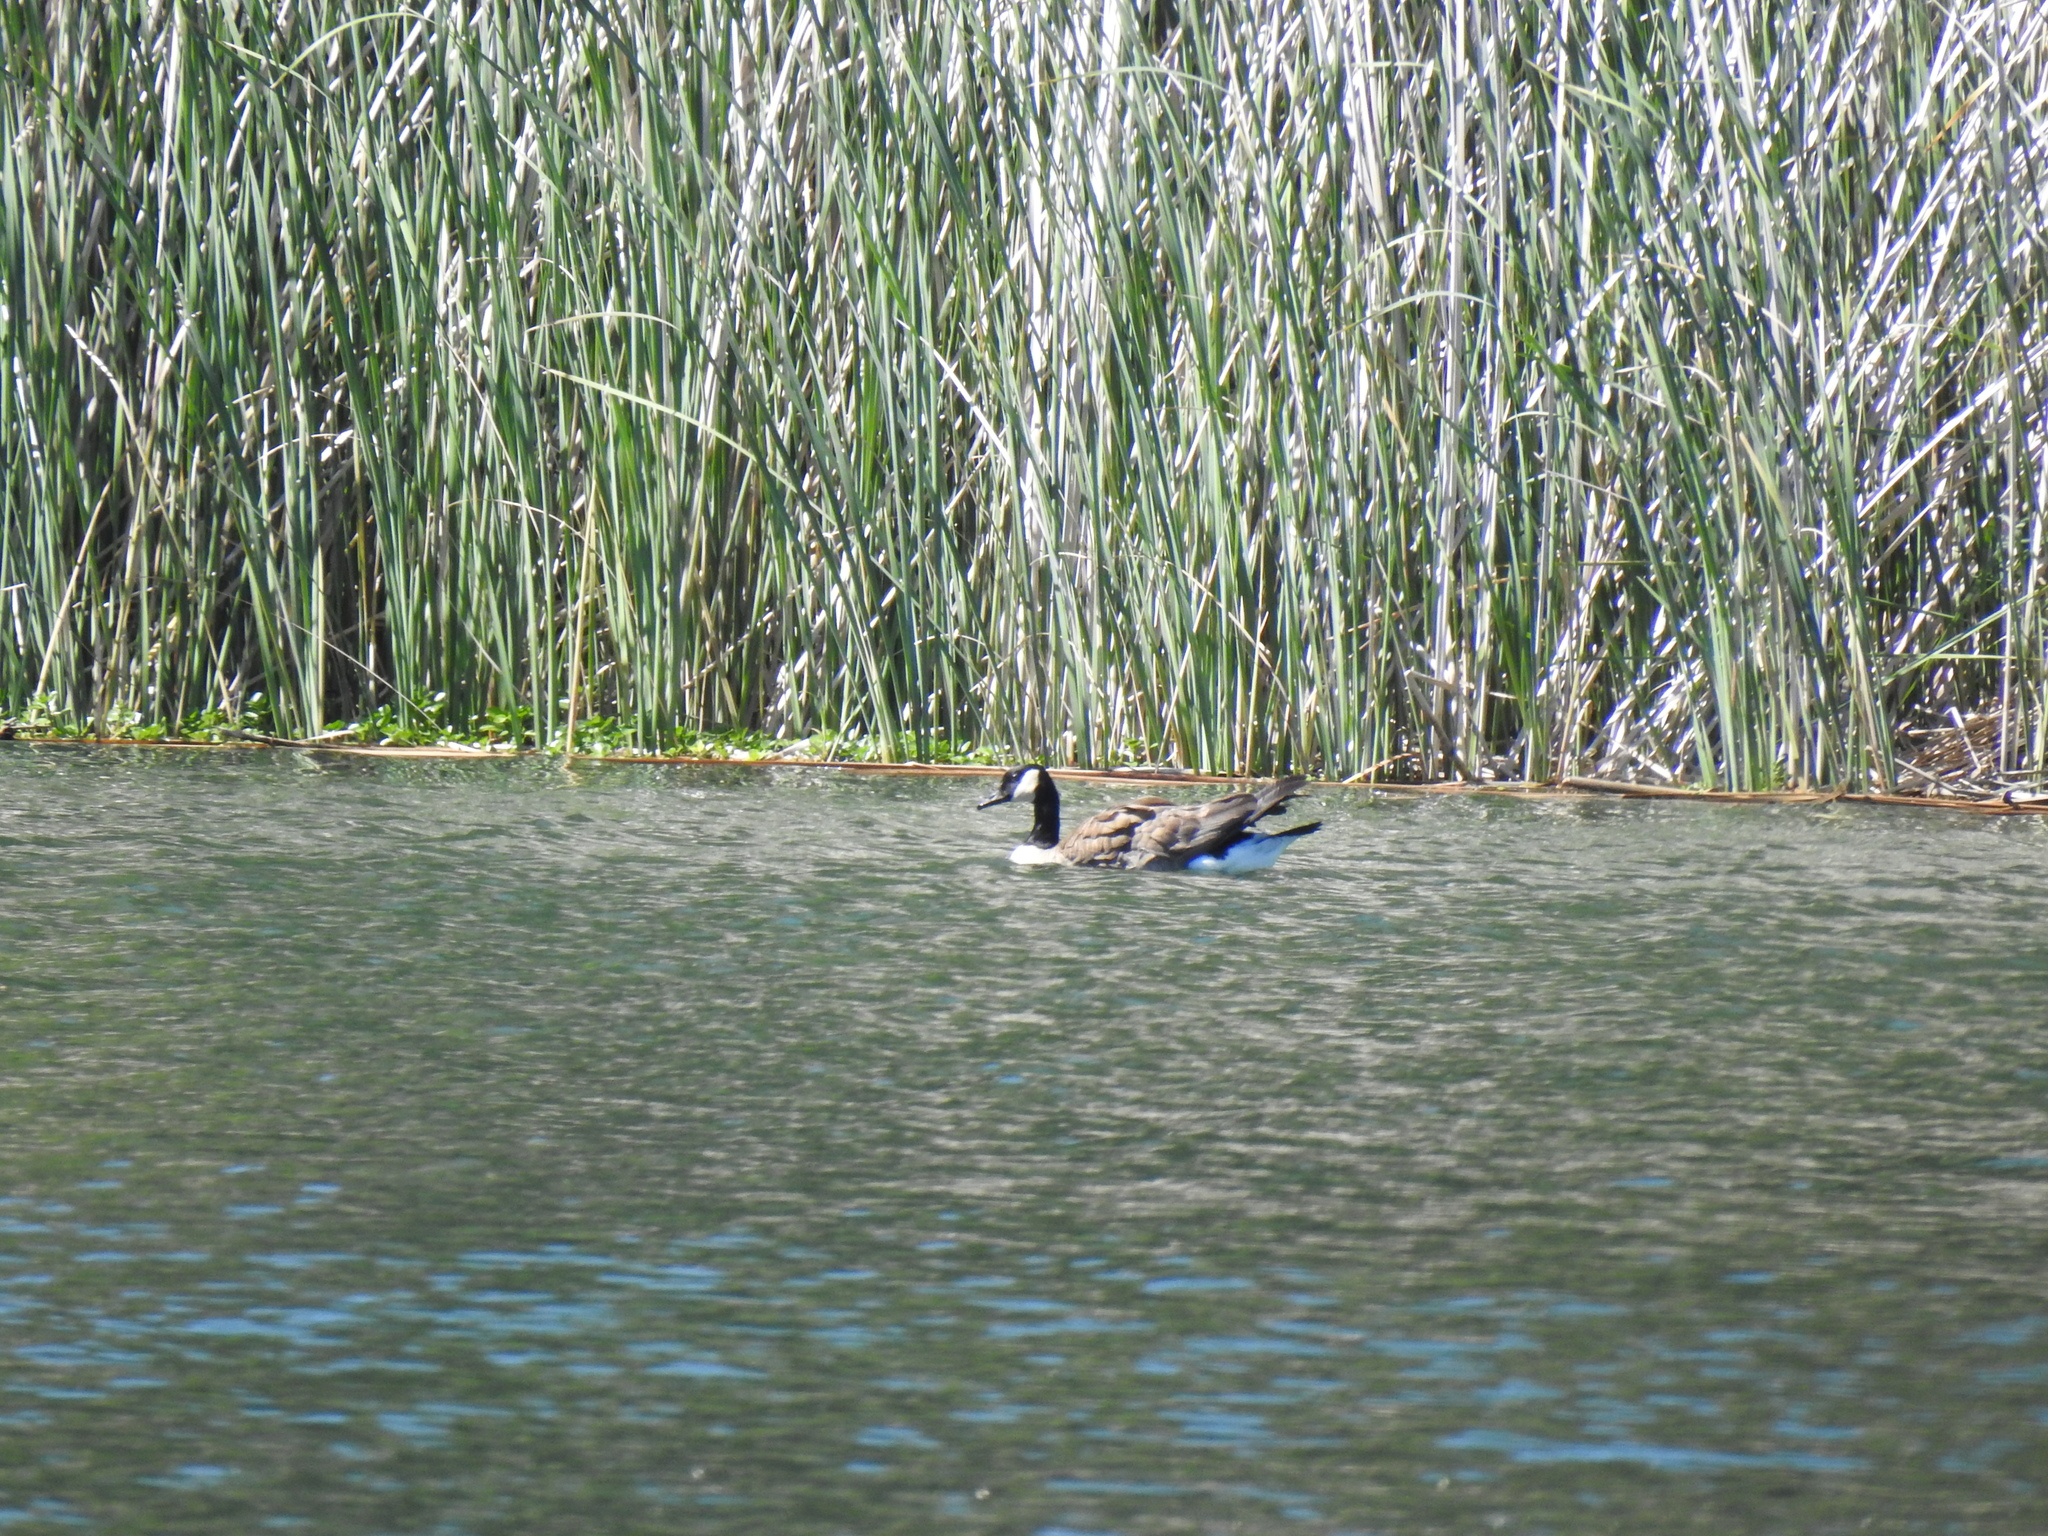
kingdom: Animalia
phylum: Chordata
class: Aves
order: Anseriformes
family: Anatidae
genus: Branta
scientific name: Branta canadensis
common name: Canada goose
